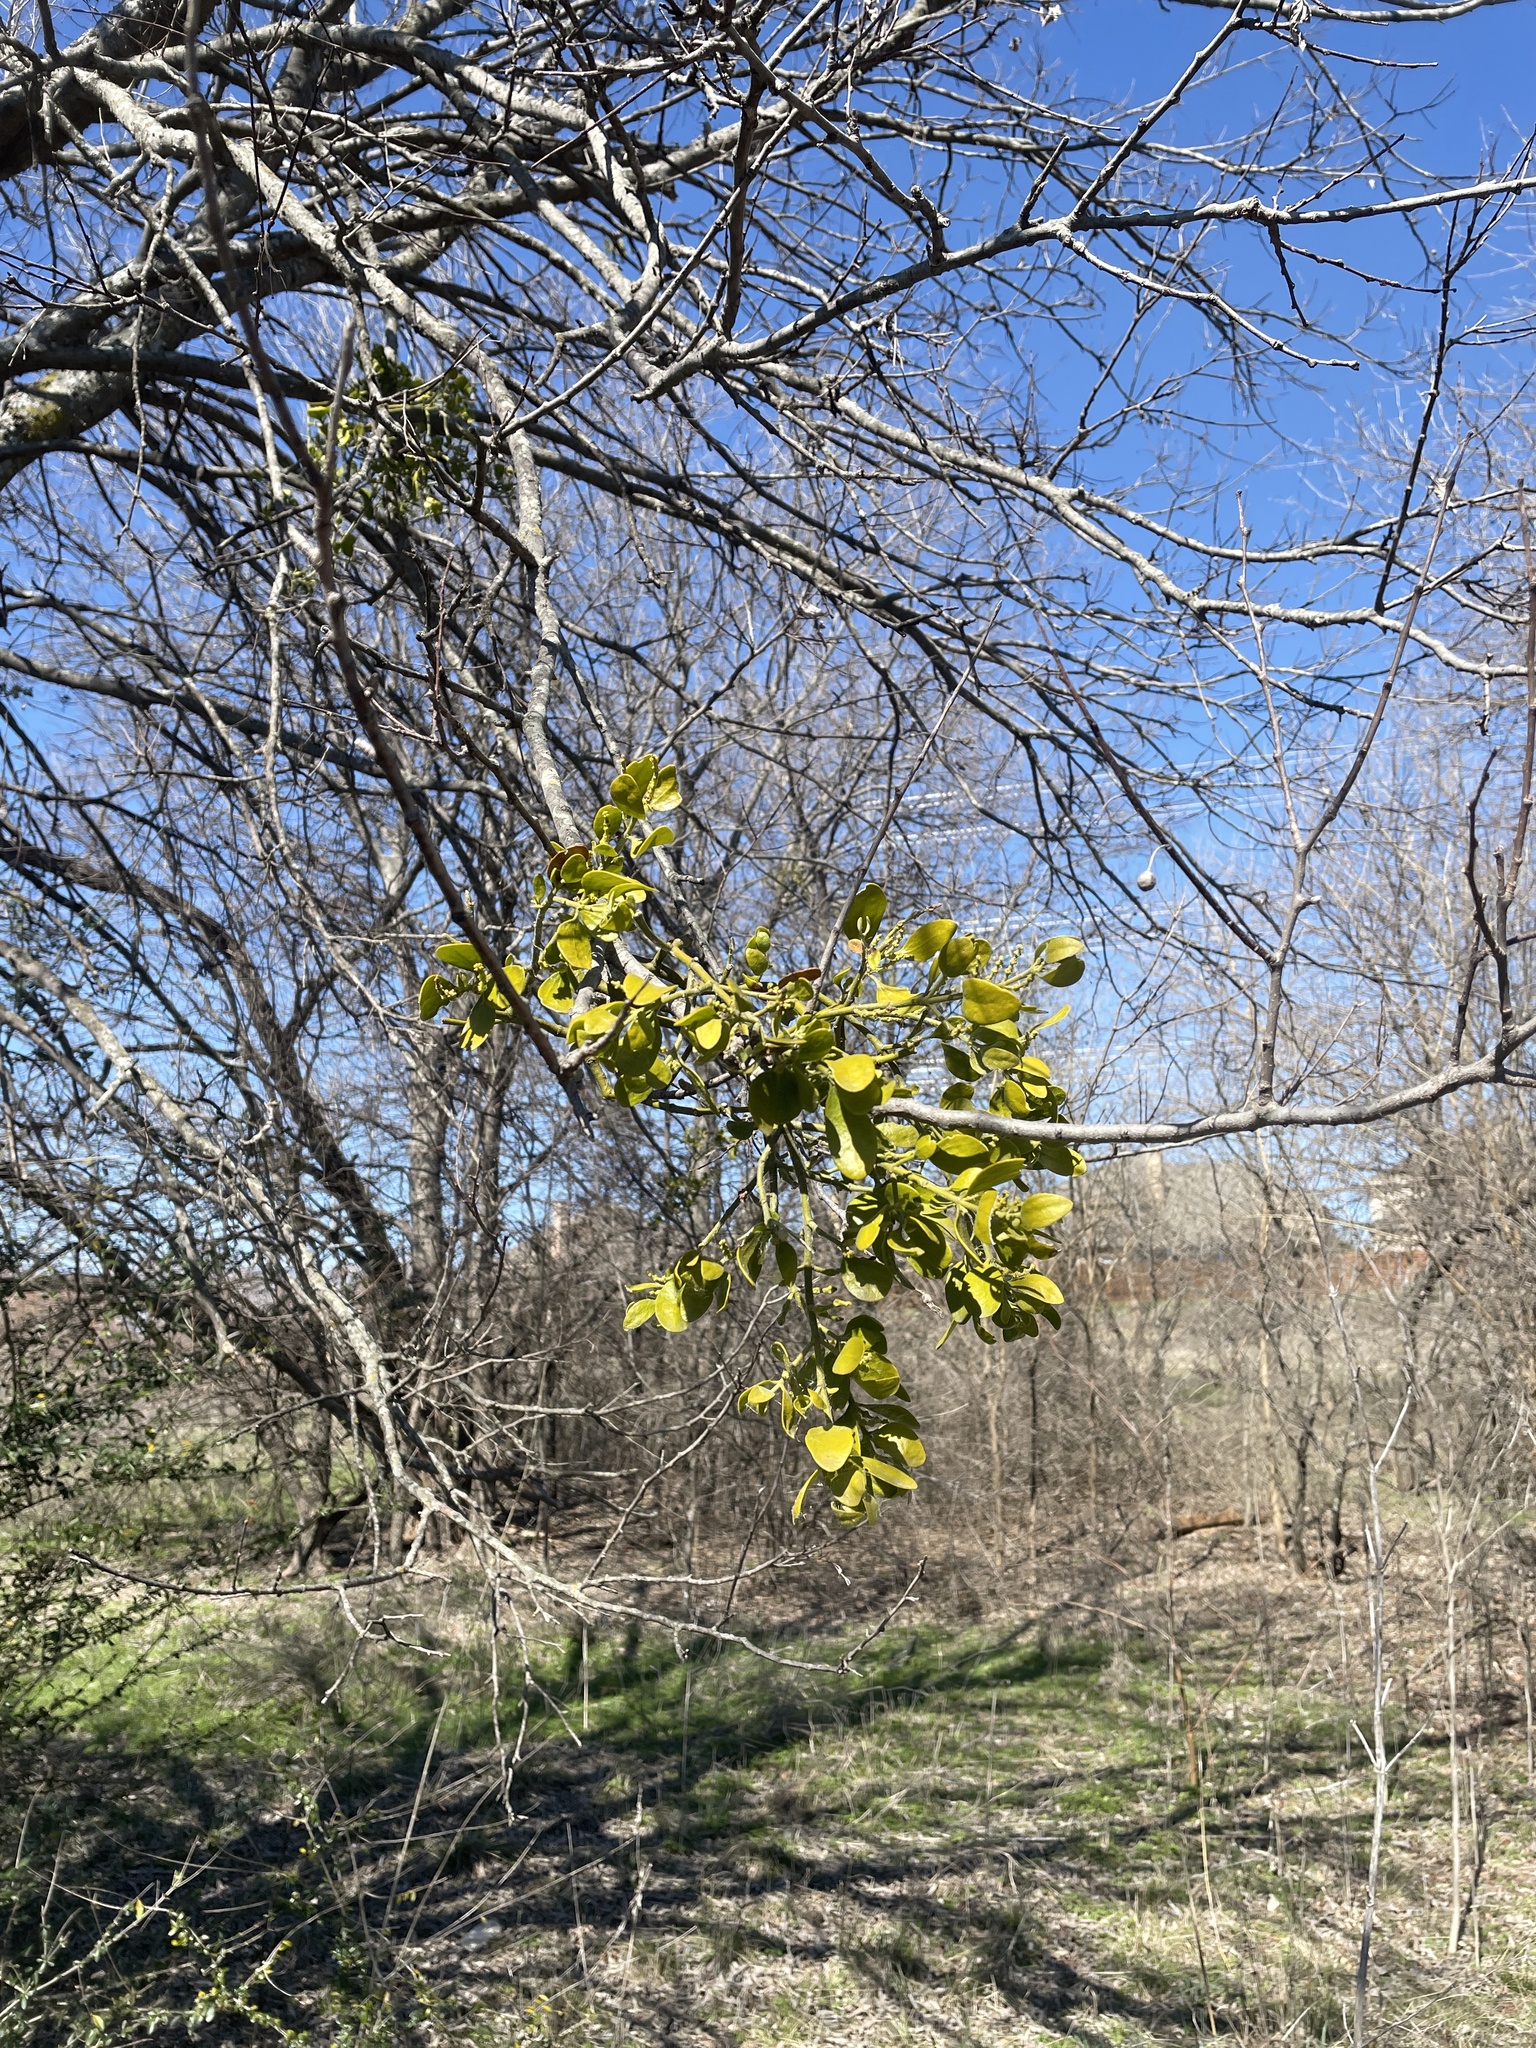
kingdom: Plantae
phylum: Tracheophyta
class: Magnoliopsida
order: Santalales
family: Viscaceae
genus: Phoradendron
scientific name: Phoradendron leucarpum
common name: Pacific mistletoe
